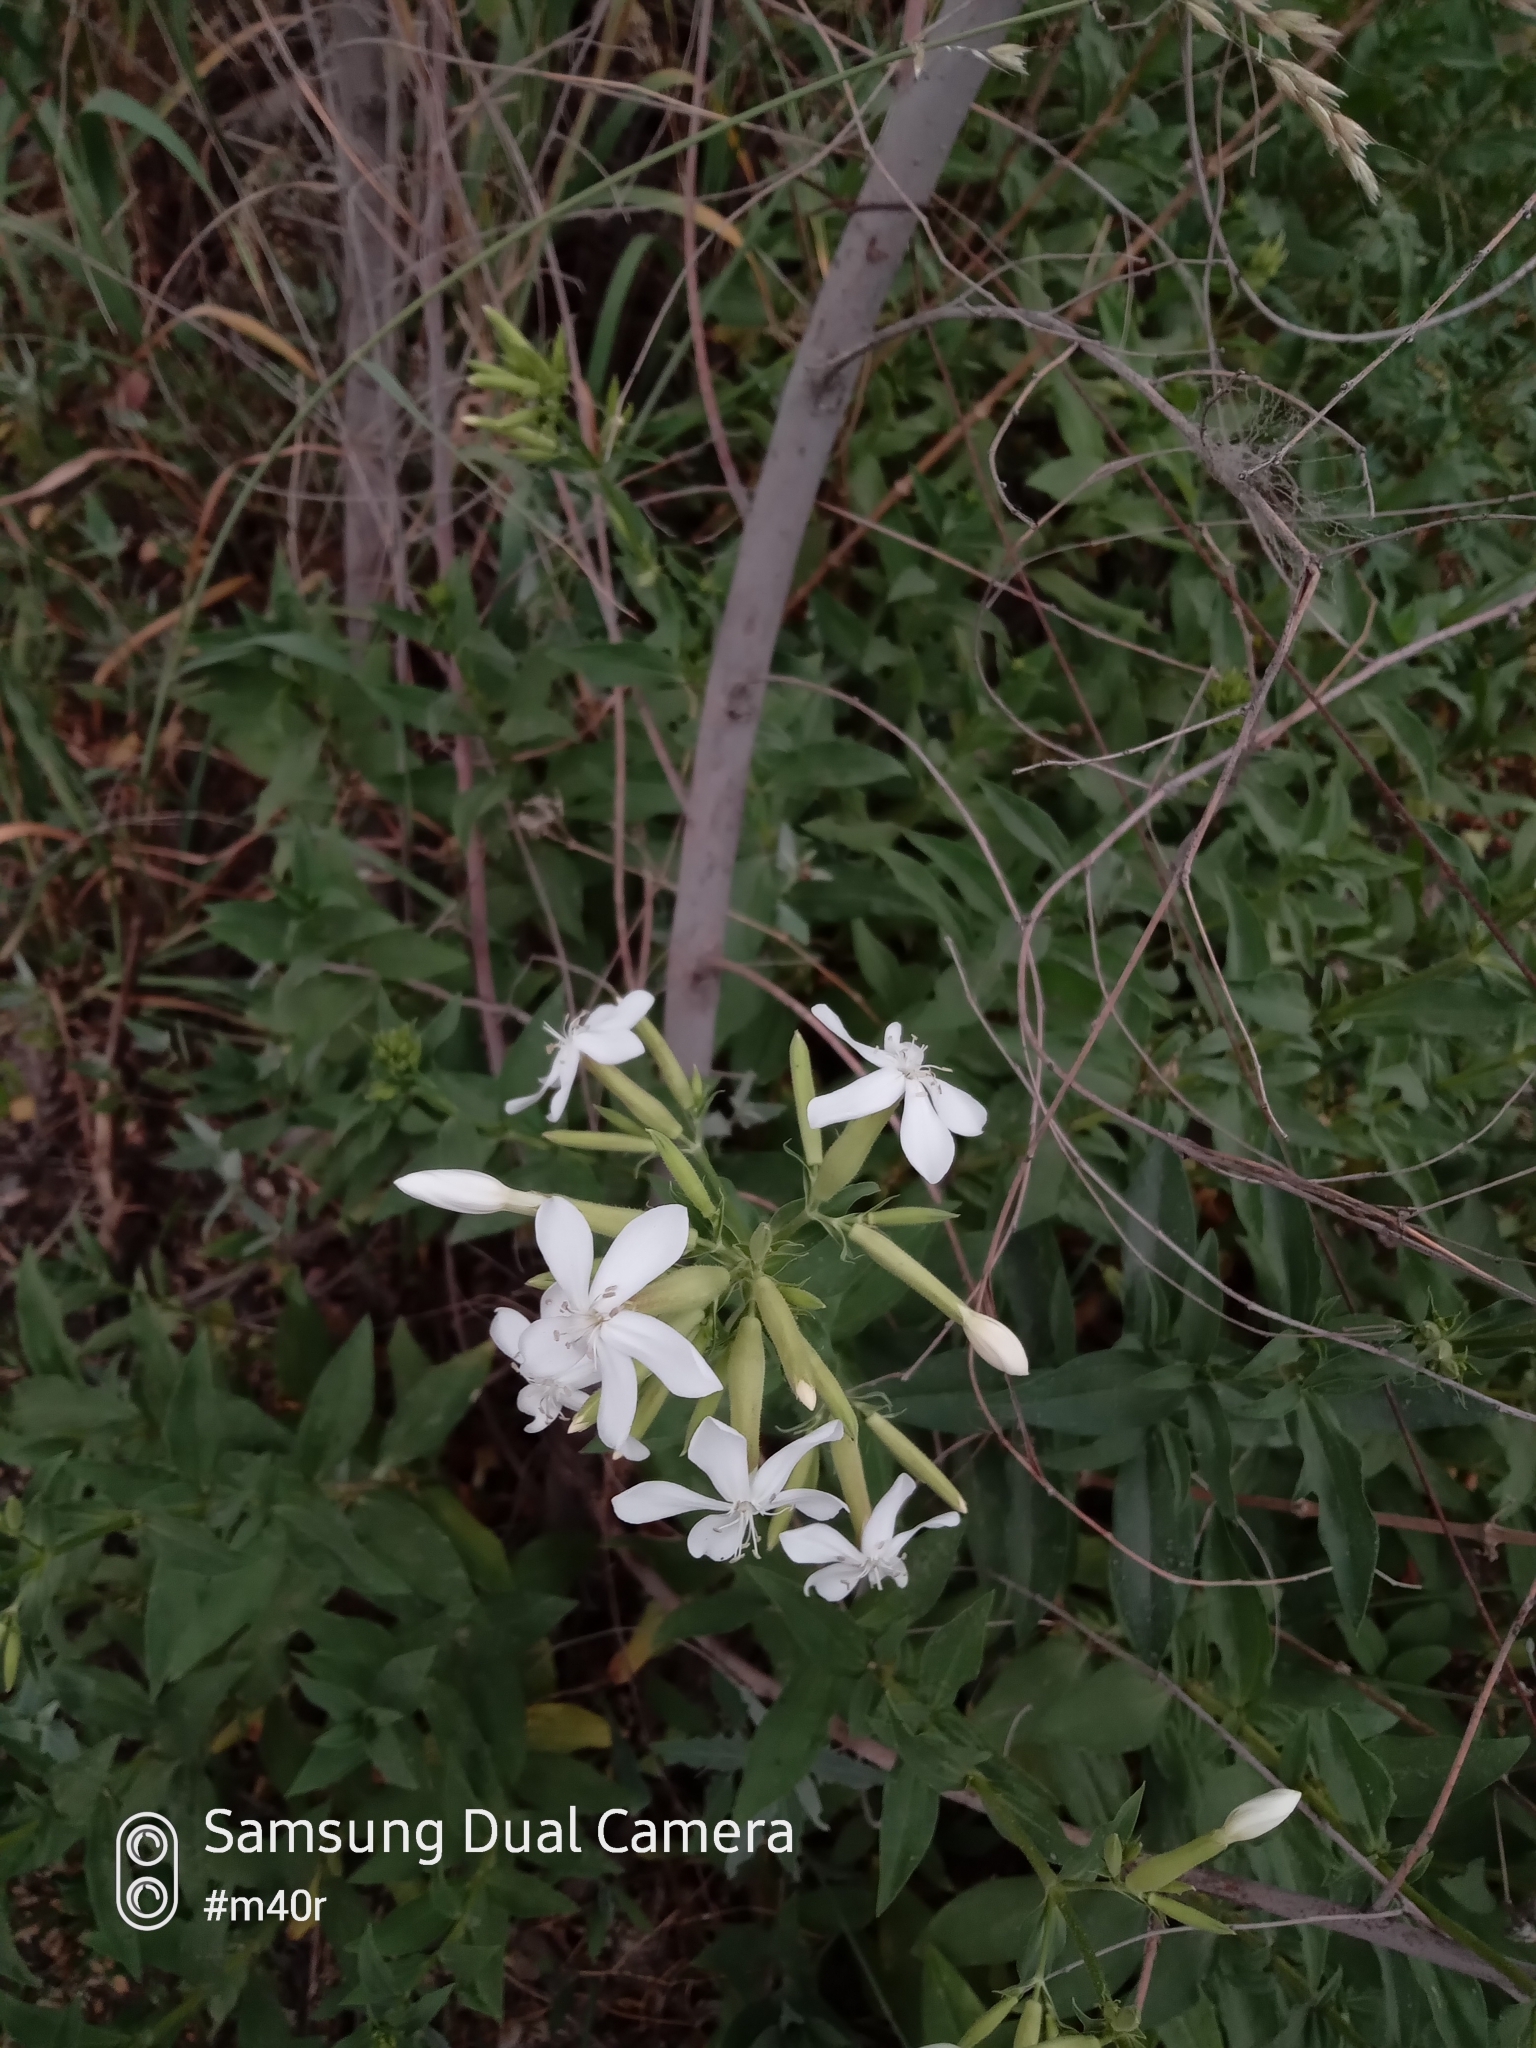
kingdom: Plantae
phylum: Tracheophyta
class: Magnoliopsida
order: Caryophyllales
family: Caryophyllaceae
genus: Saponaria
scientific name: Saponaria officinalis
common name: Soapwort
